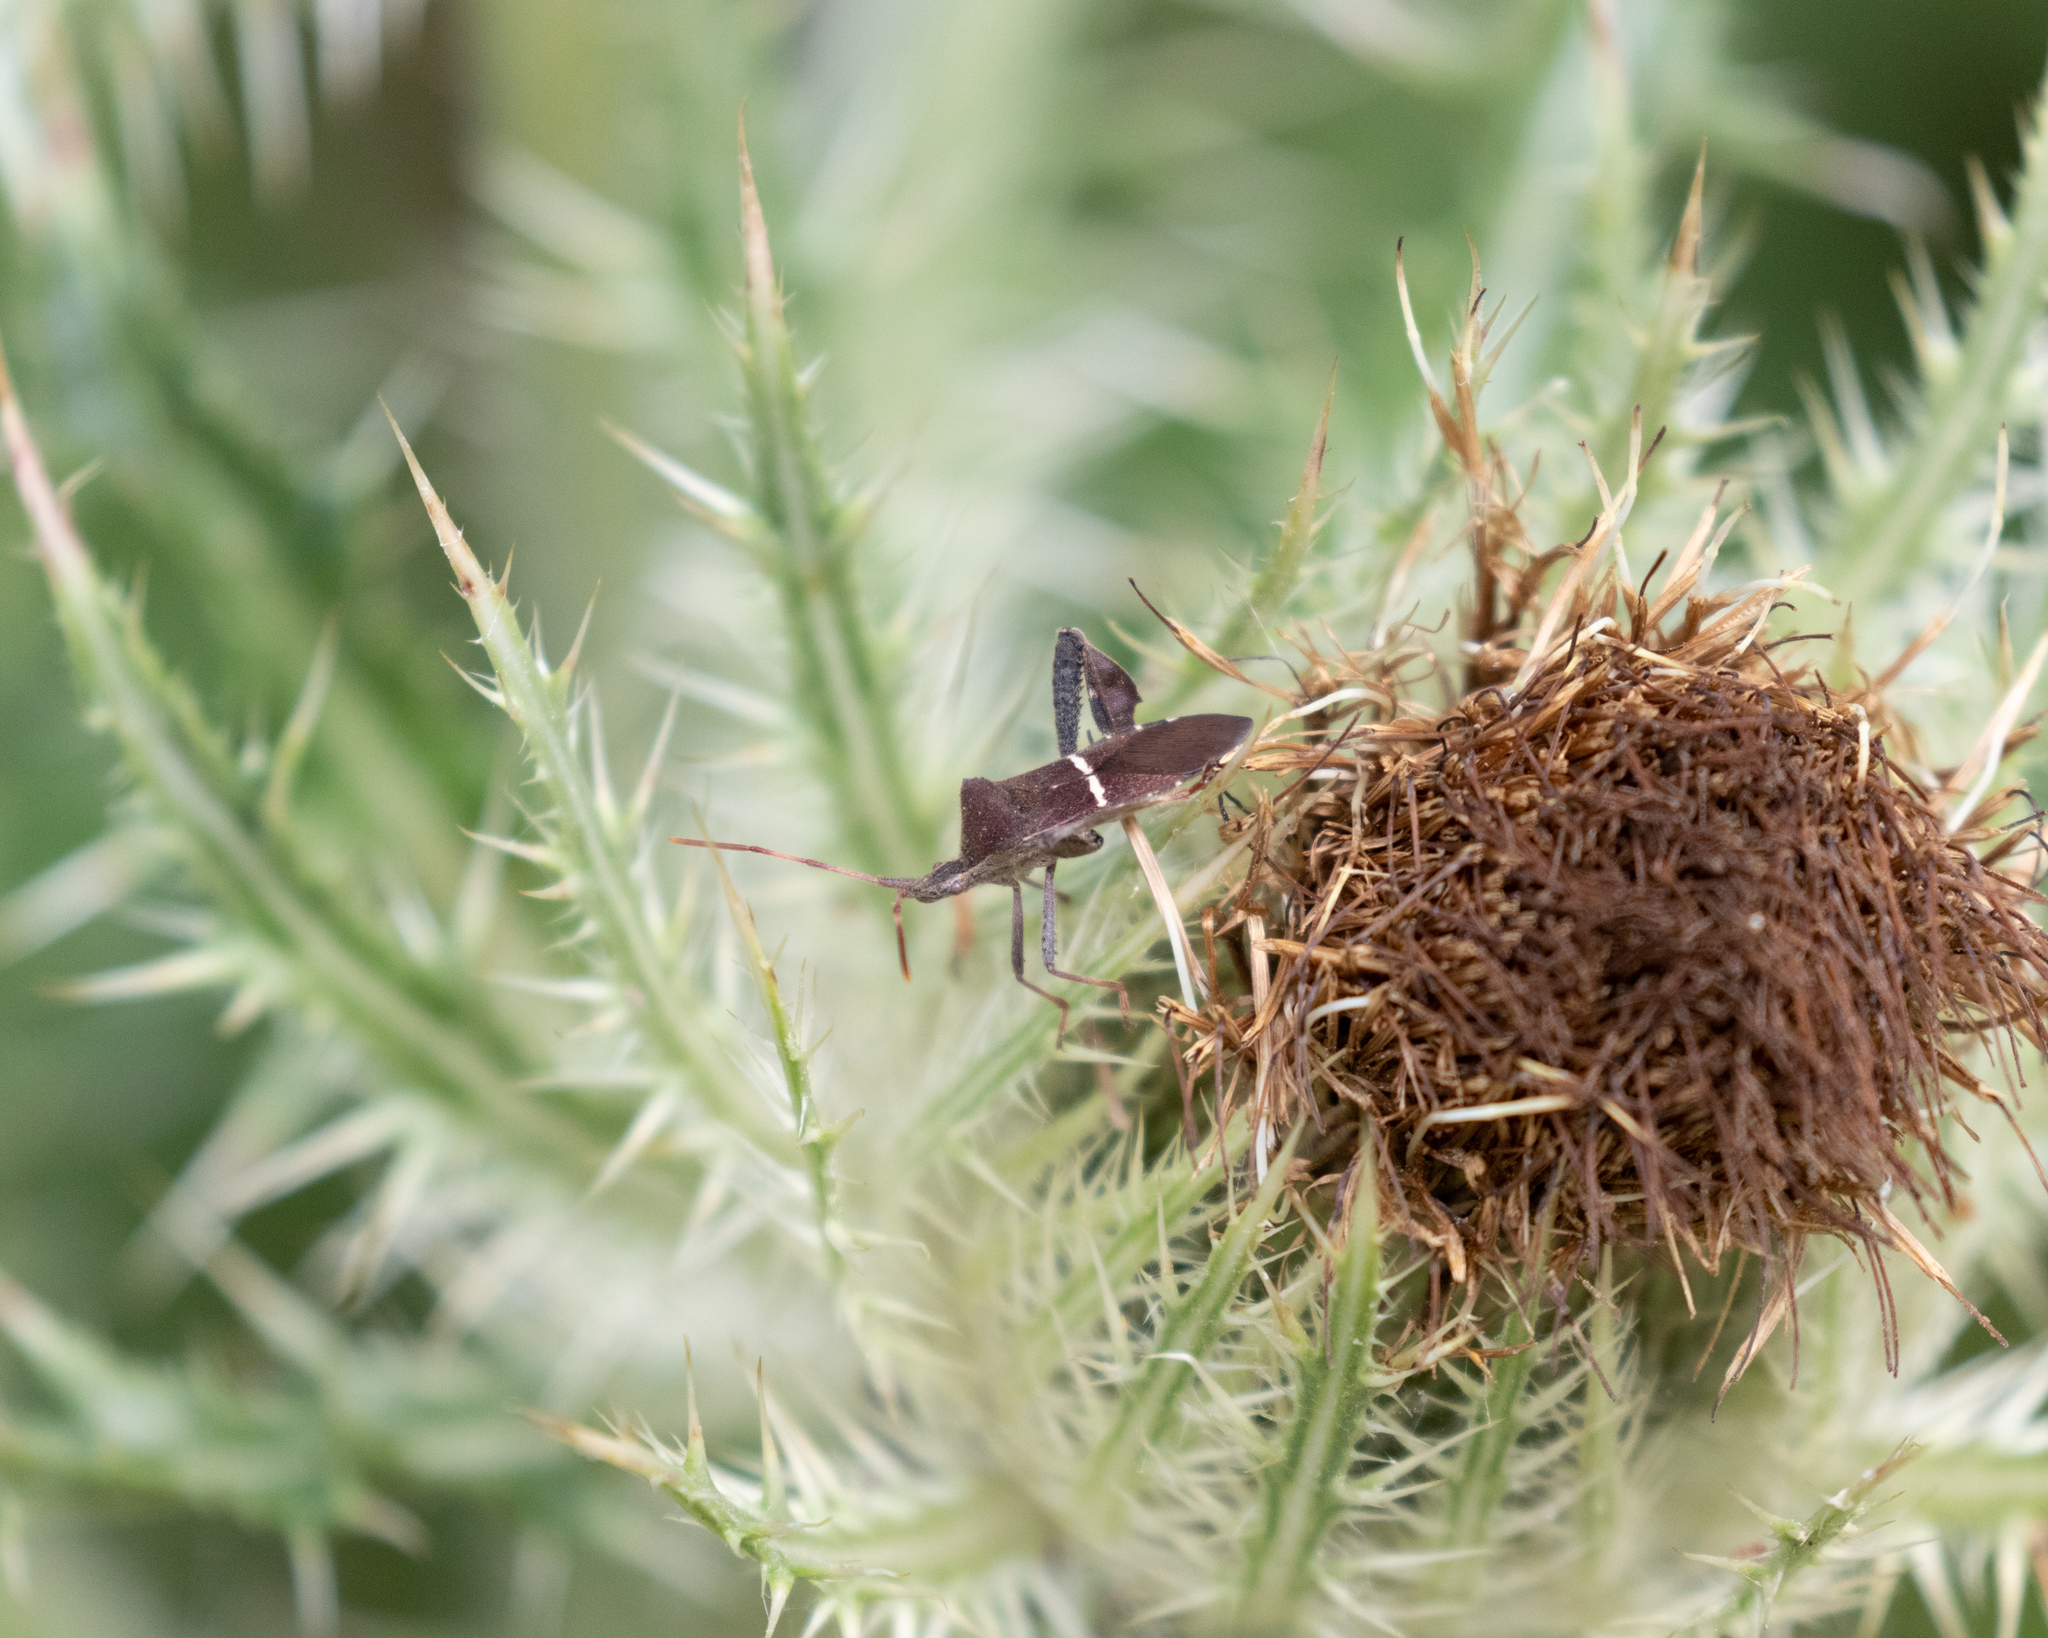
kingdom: Animalia
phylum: Arthropoda
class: Insecta
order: Hemiptera
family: Coreidae
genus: Leptoglossus
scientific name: Leptoglossus phyllopus
